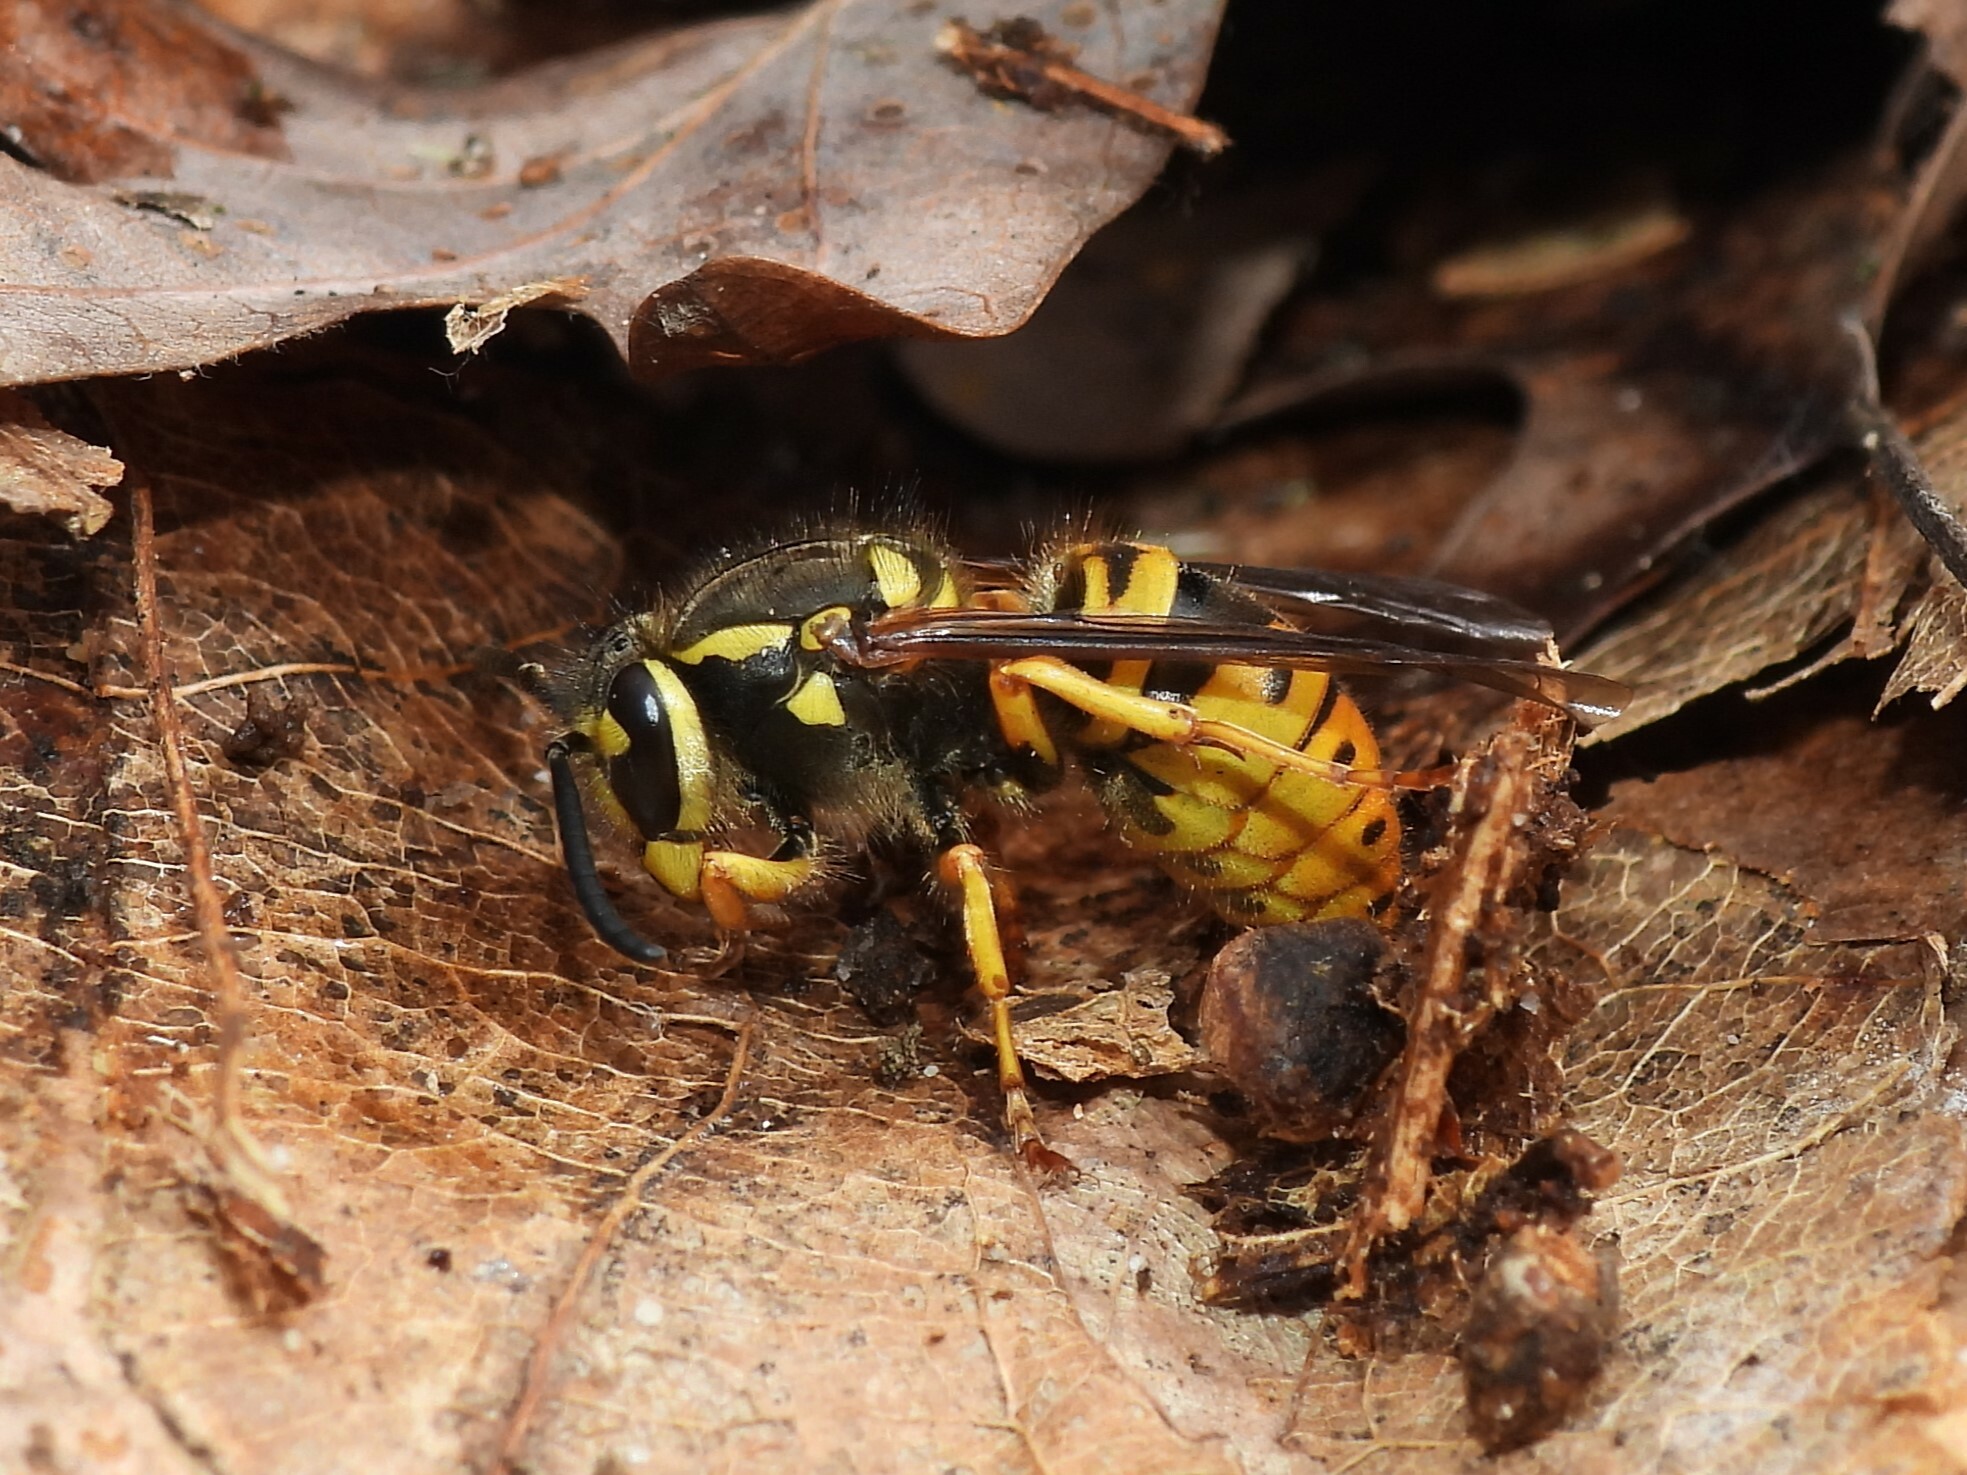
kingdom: Animalia
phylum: Arthropoda
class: Insecta
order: Hymenoptera
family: Vespidae
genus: Vespula
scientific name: Vespula maculifrons
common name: Eastern yellowjacket
